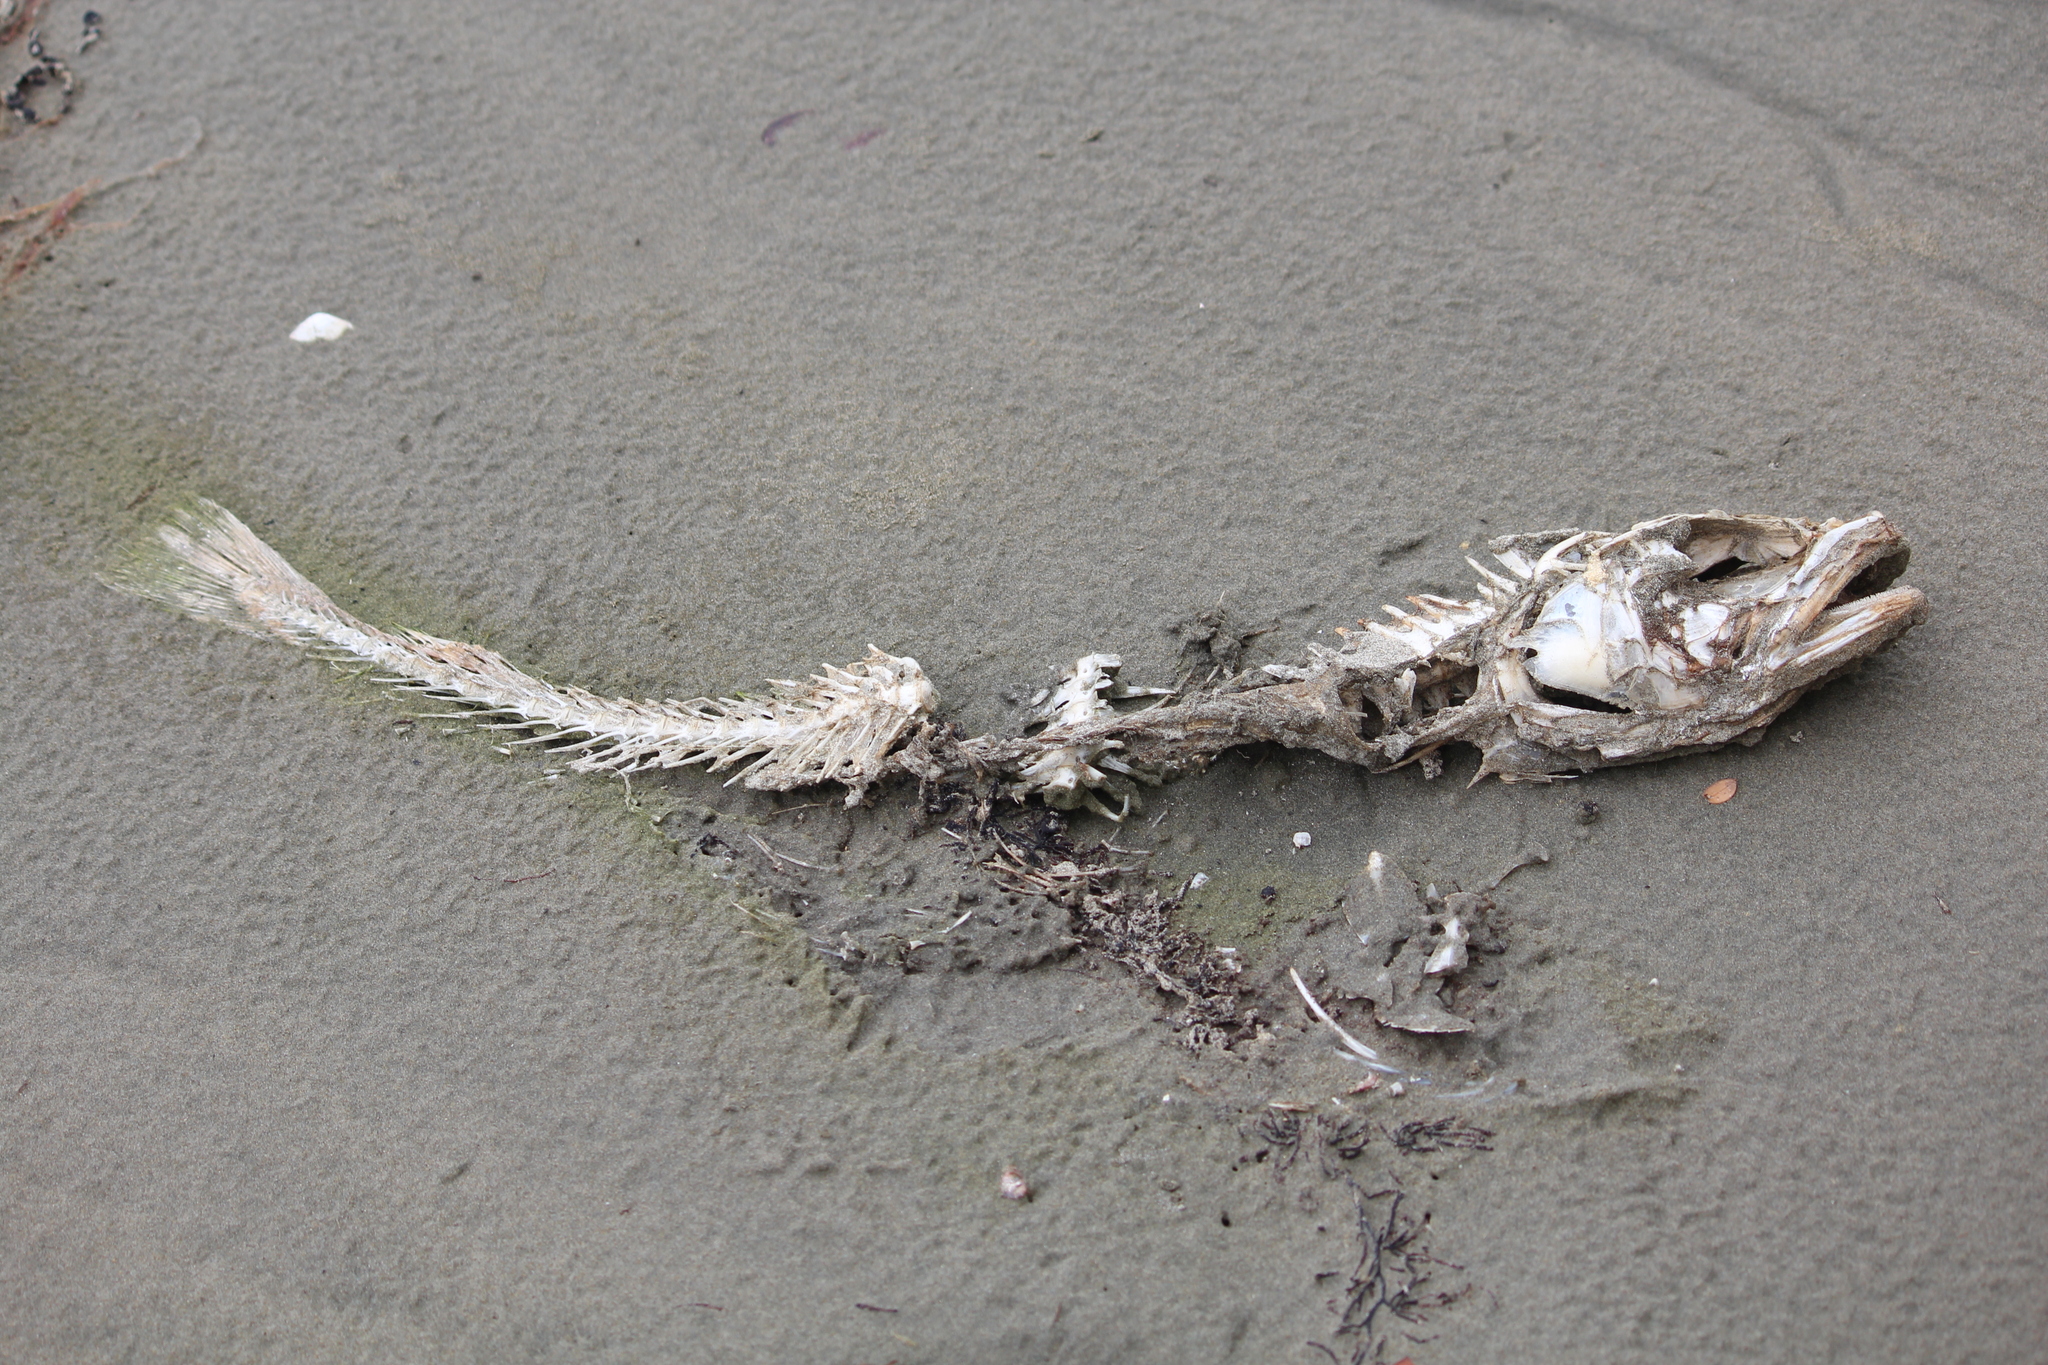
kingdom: Animalia
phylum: Chordata
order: Gadiformes
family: Moridae
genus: Pseudophycis
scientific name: Pseudophycis bachus
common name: Red cod
